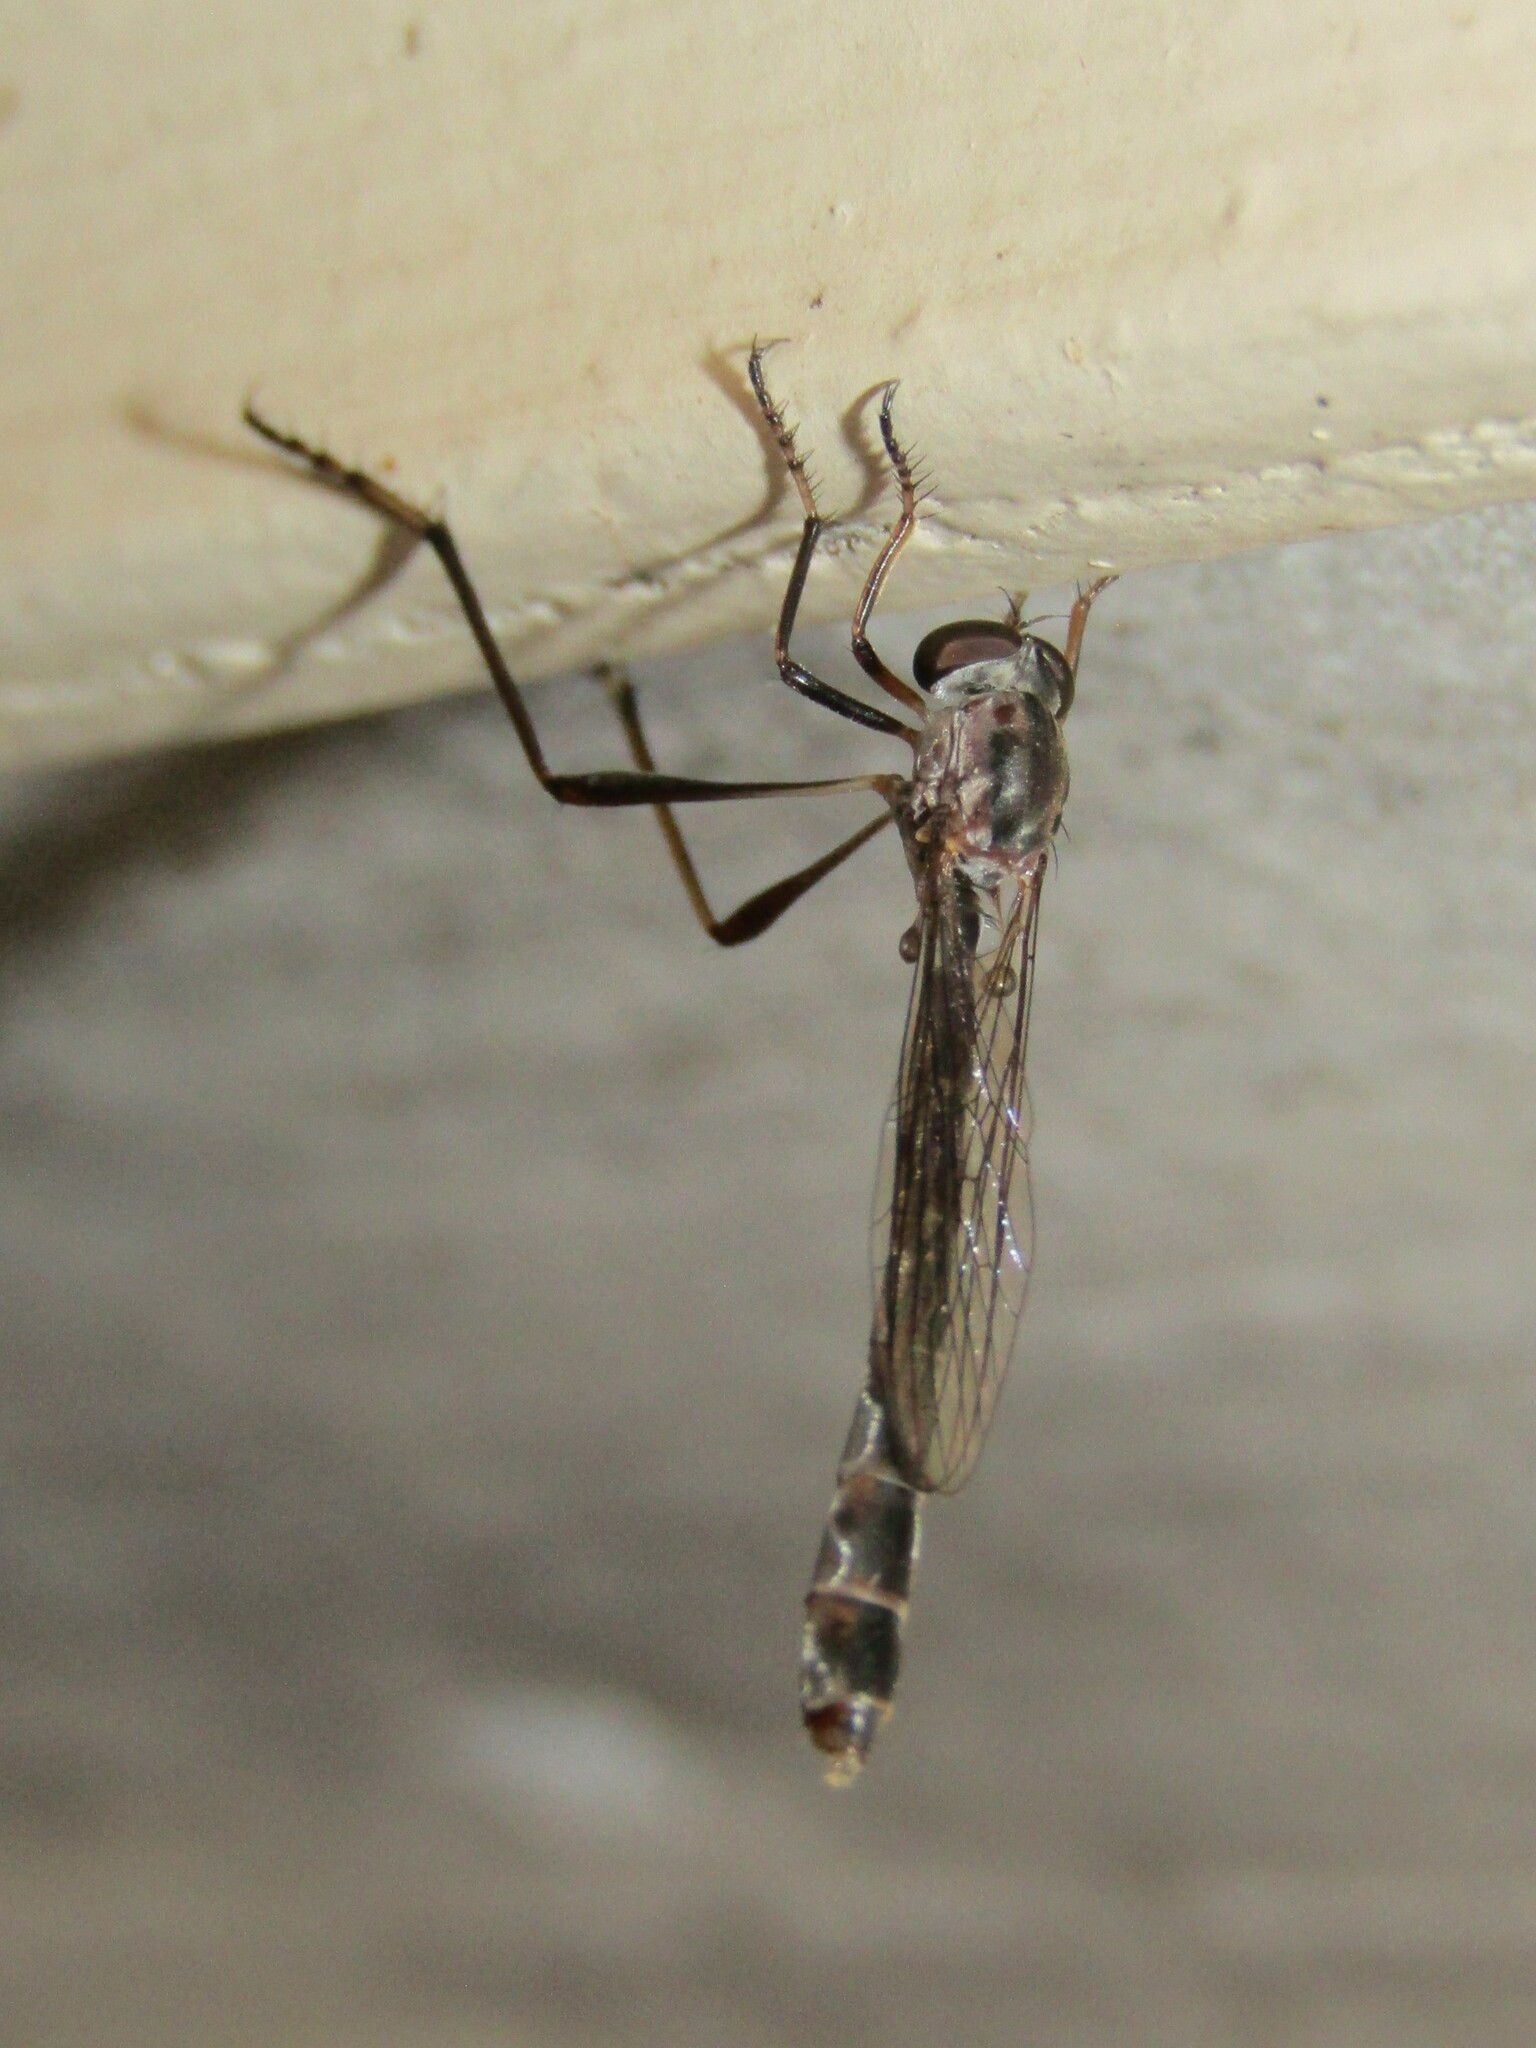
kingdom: Animalia
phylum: Arthropoda
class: Insecta
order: Diptera
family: Asilidae
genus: Apachekolos
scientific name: Apachekolos tenuipes
